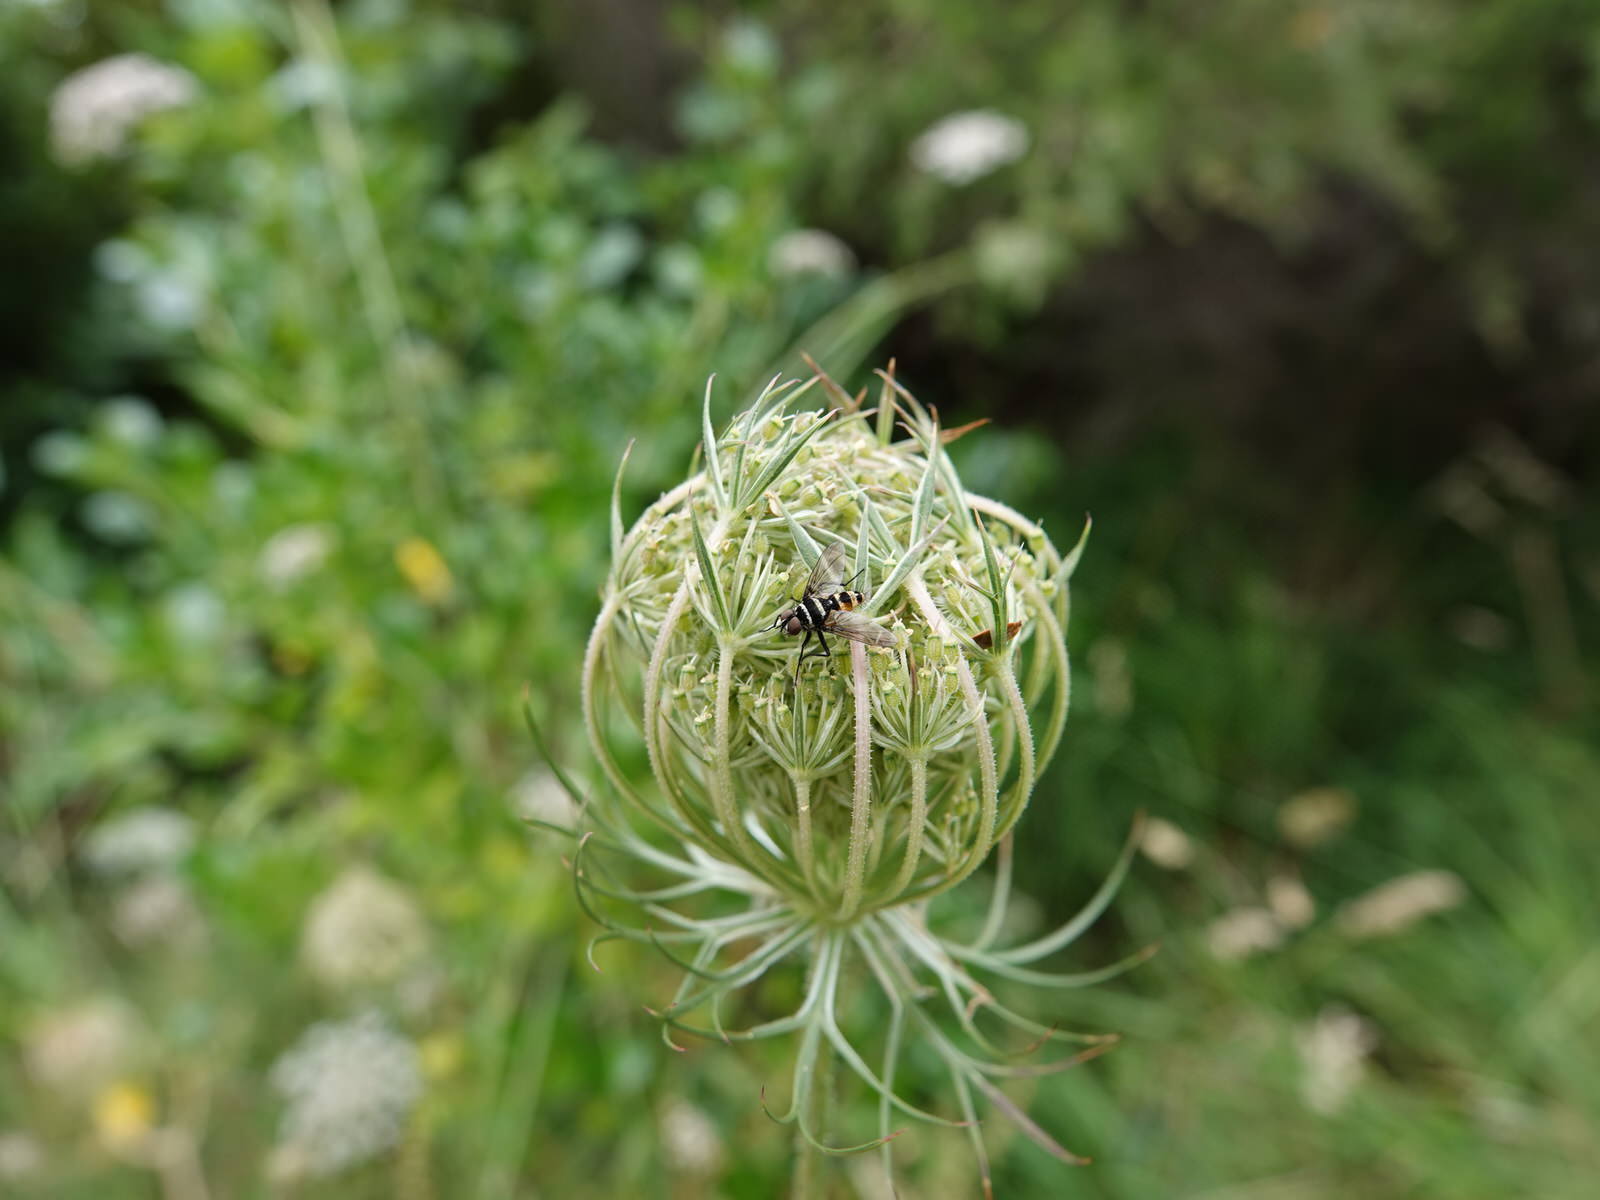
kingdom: Animalia
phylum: Arthropoda
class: Insecta
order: Diptera
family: Tachinidae
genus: Trigonospila
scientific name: Trigonospila brevifacies
